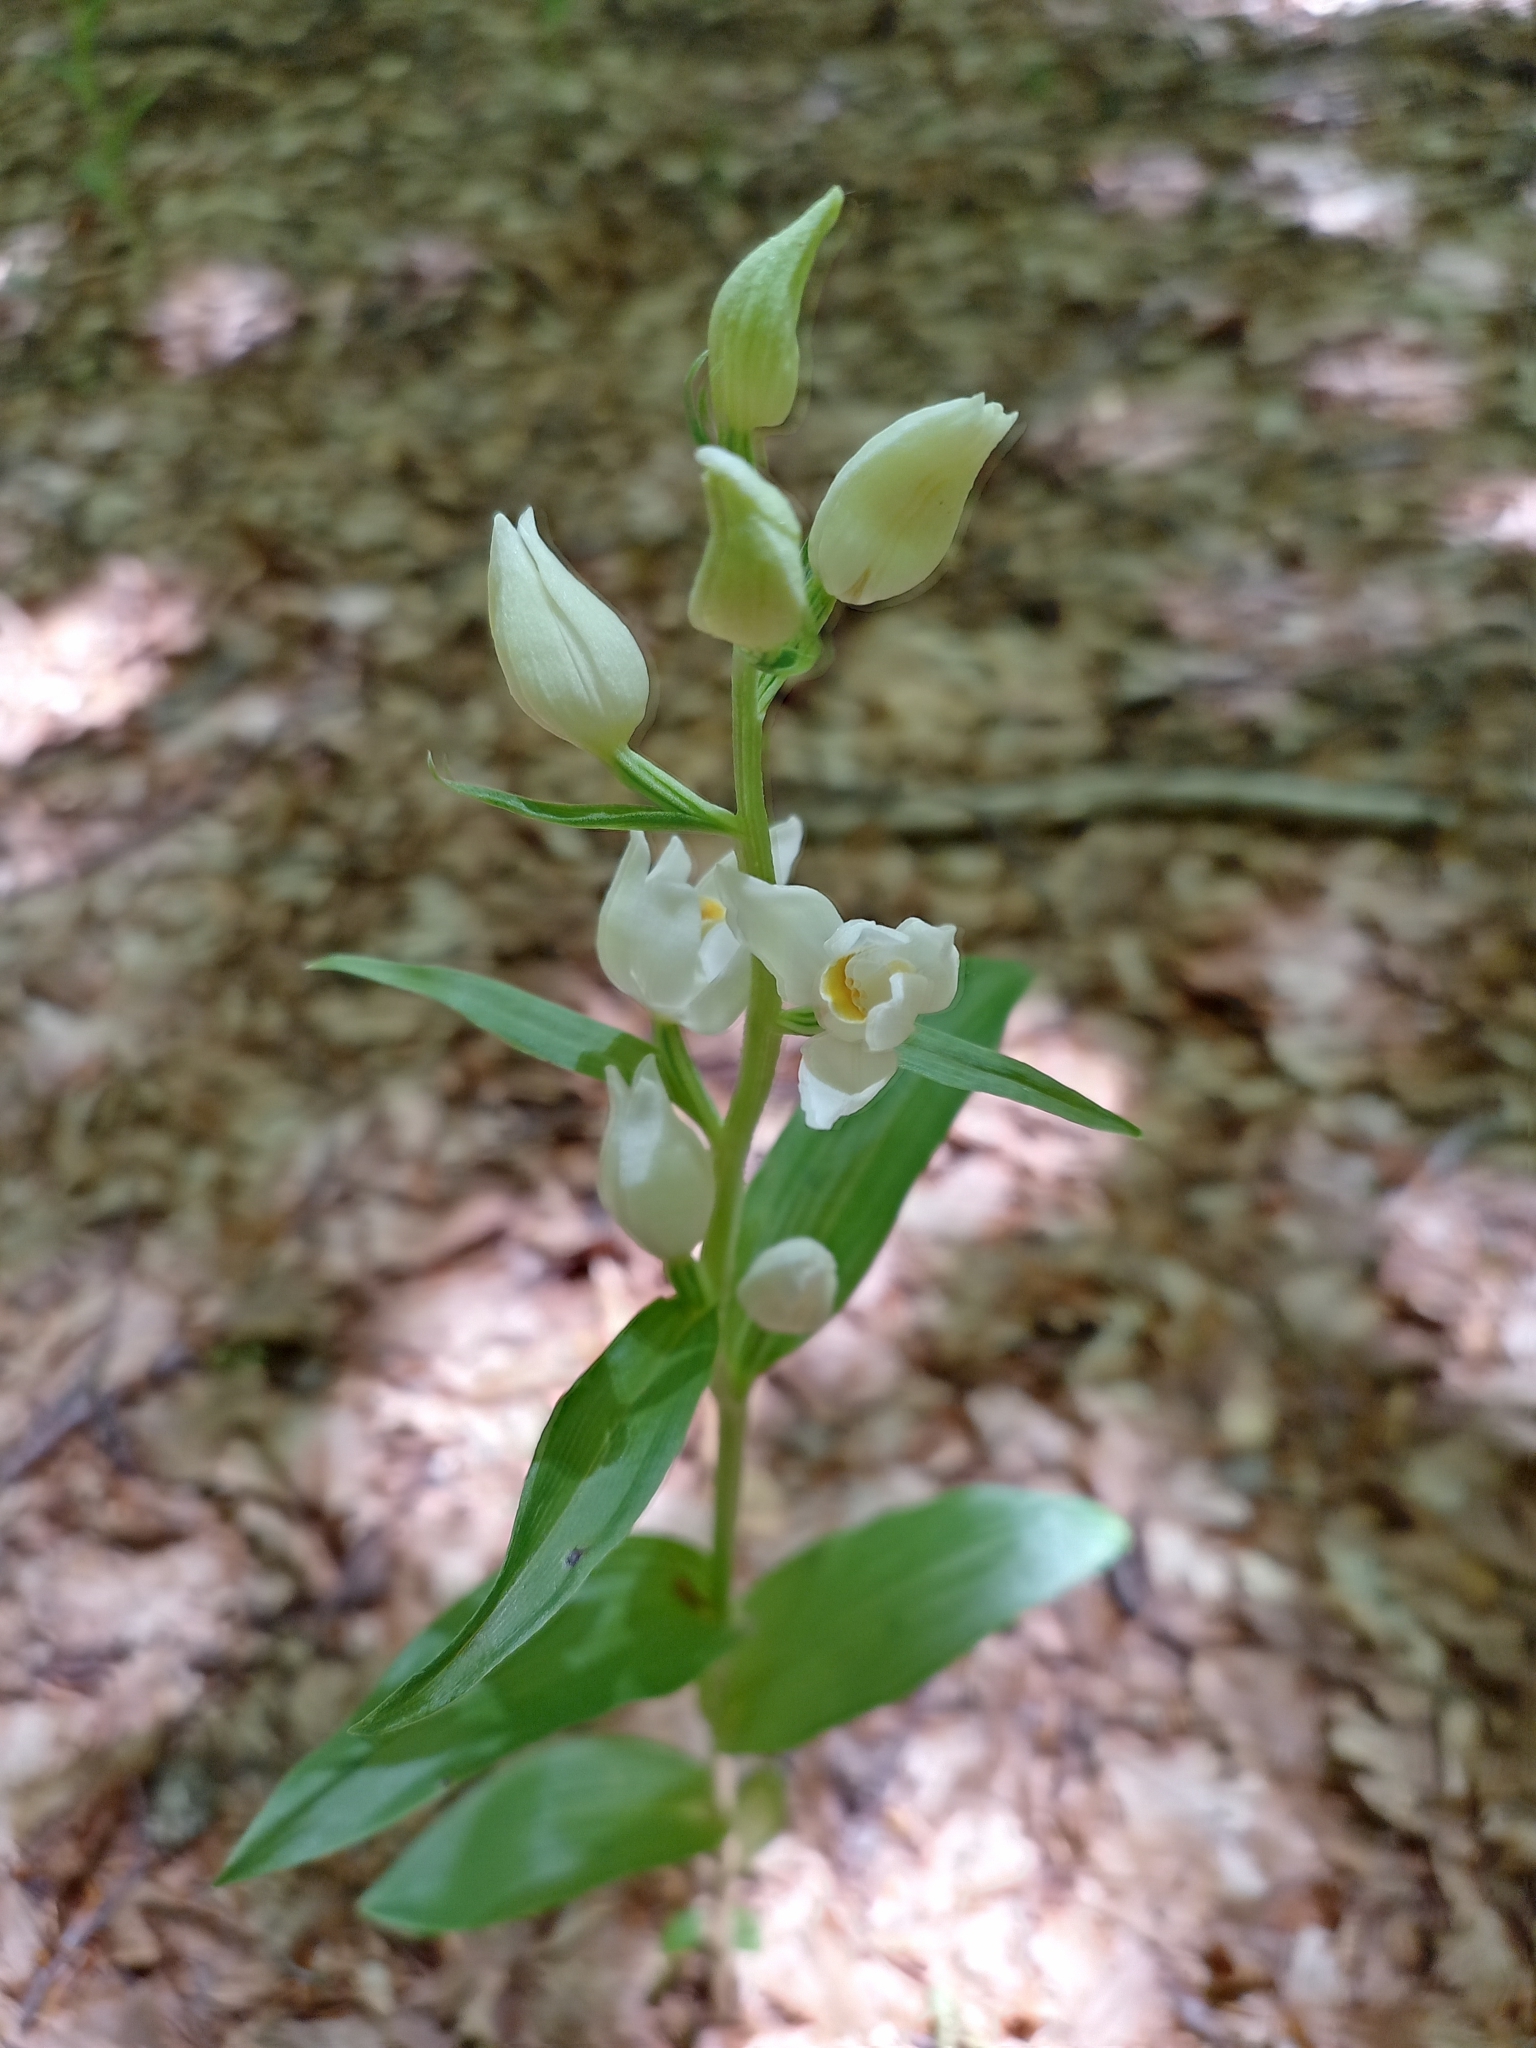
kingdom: Plantae
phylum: Tracheophyta
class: Liliopsida
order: Asparagales
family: Orchidaceae
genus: Cephalanthera
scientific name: Cephalanthera damasonium
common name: White helleborine
